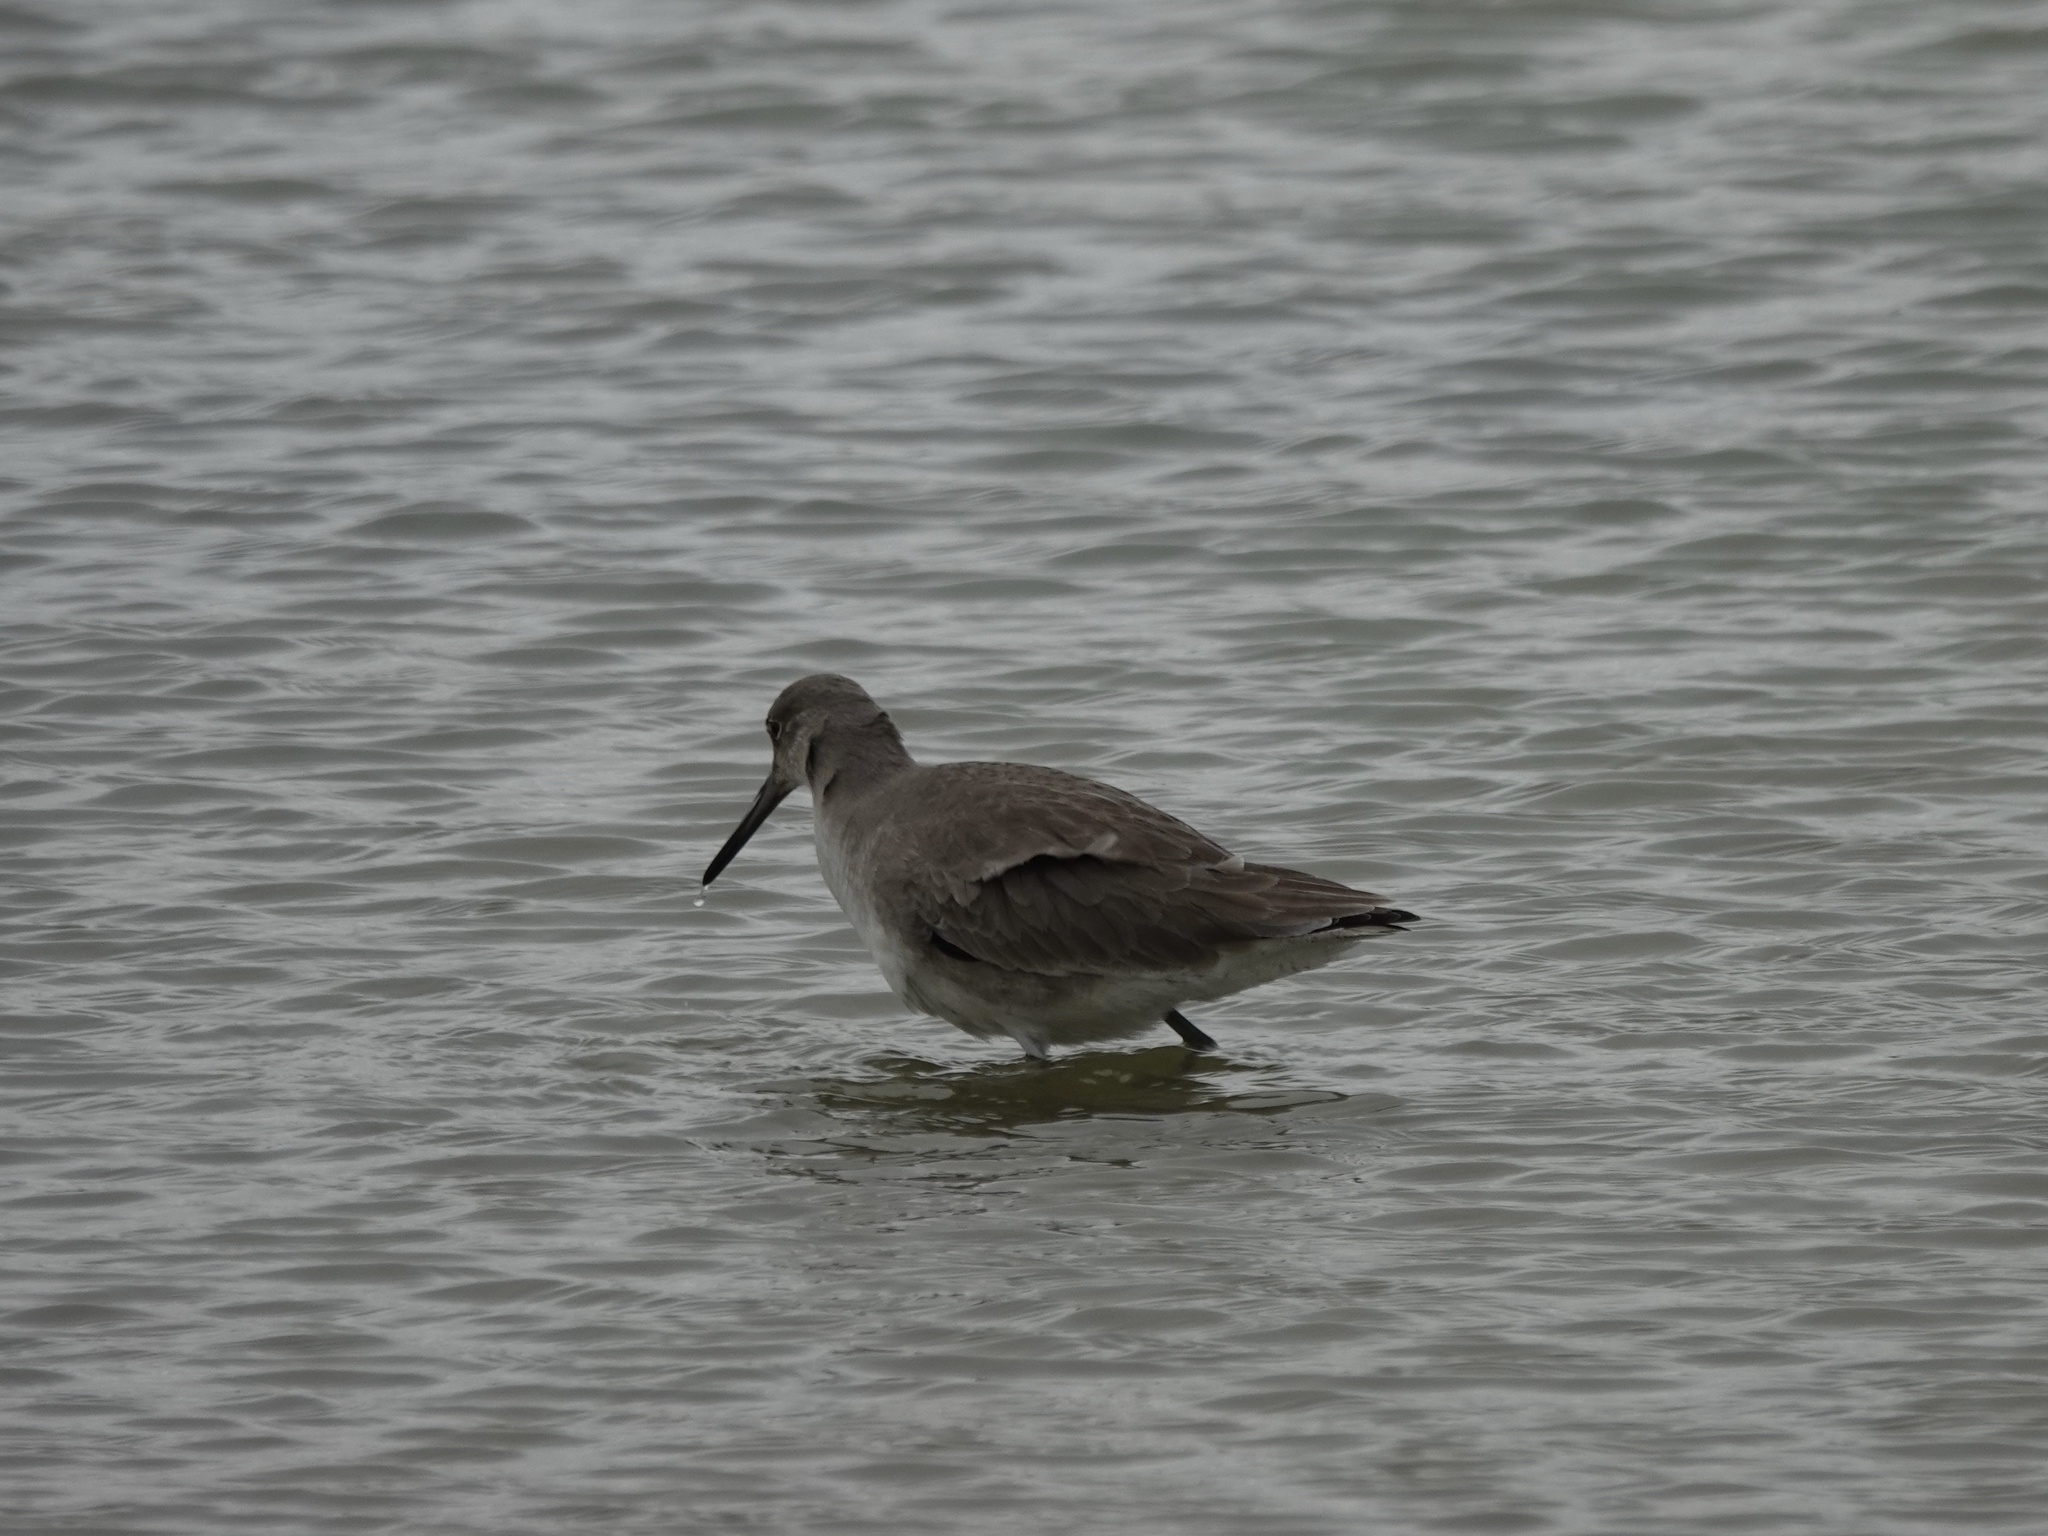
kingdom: Animalia
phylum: Chordata
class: Aves
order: Charadriiformes
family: Scolopacidae
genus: Tringa
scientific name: Tringa semipalmata
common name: Willet
